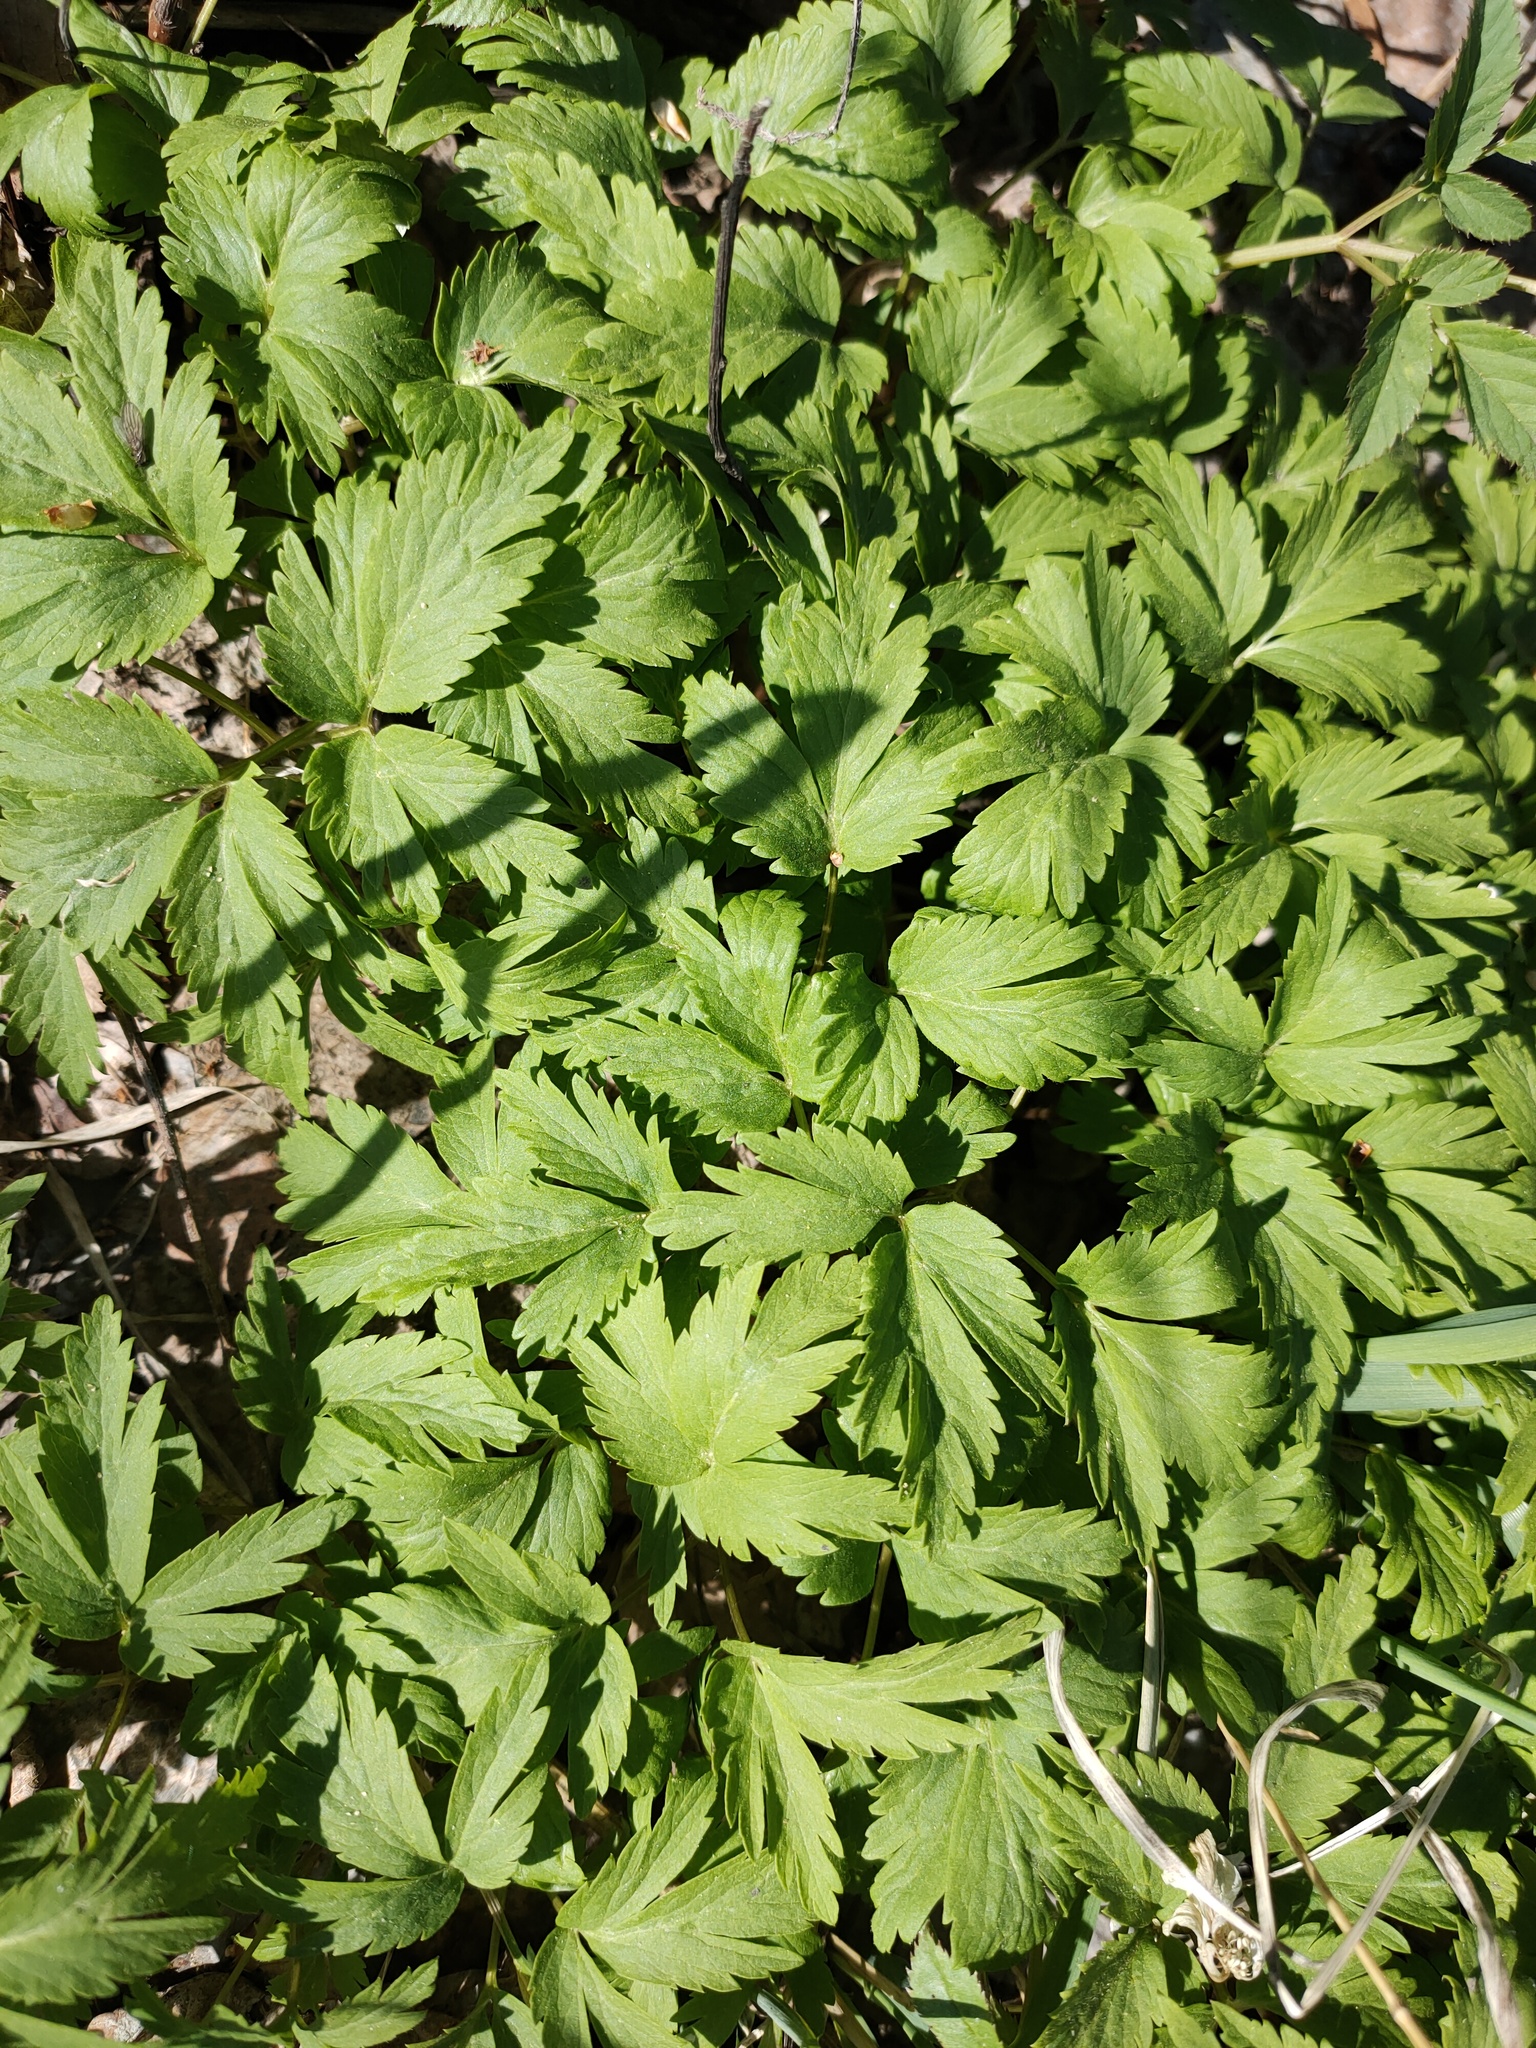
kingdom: Plantae
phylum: Tracheophyta
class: Magnoliopsida
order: Ranunculales
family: Ranunculaceae
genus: Anemone
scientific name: Anemone altaica
